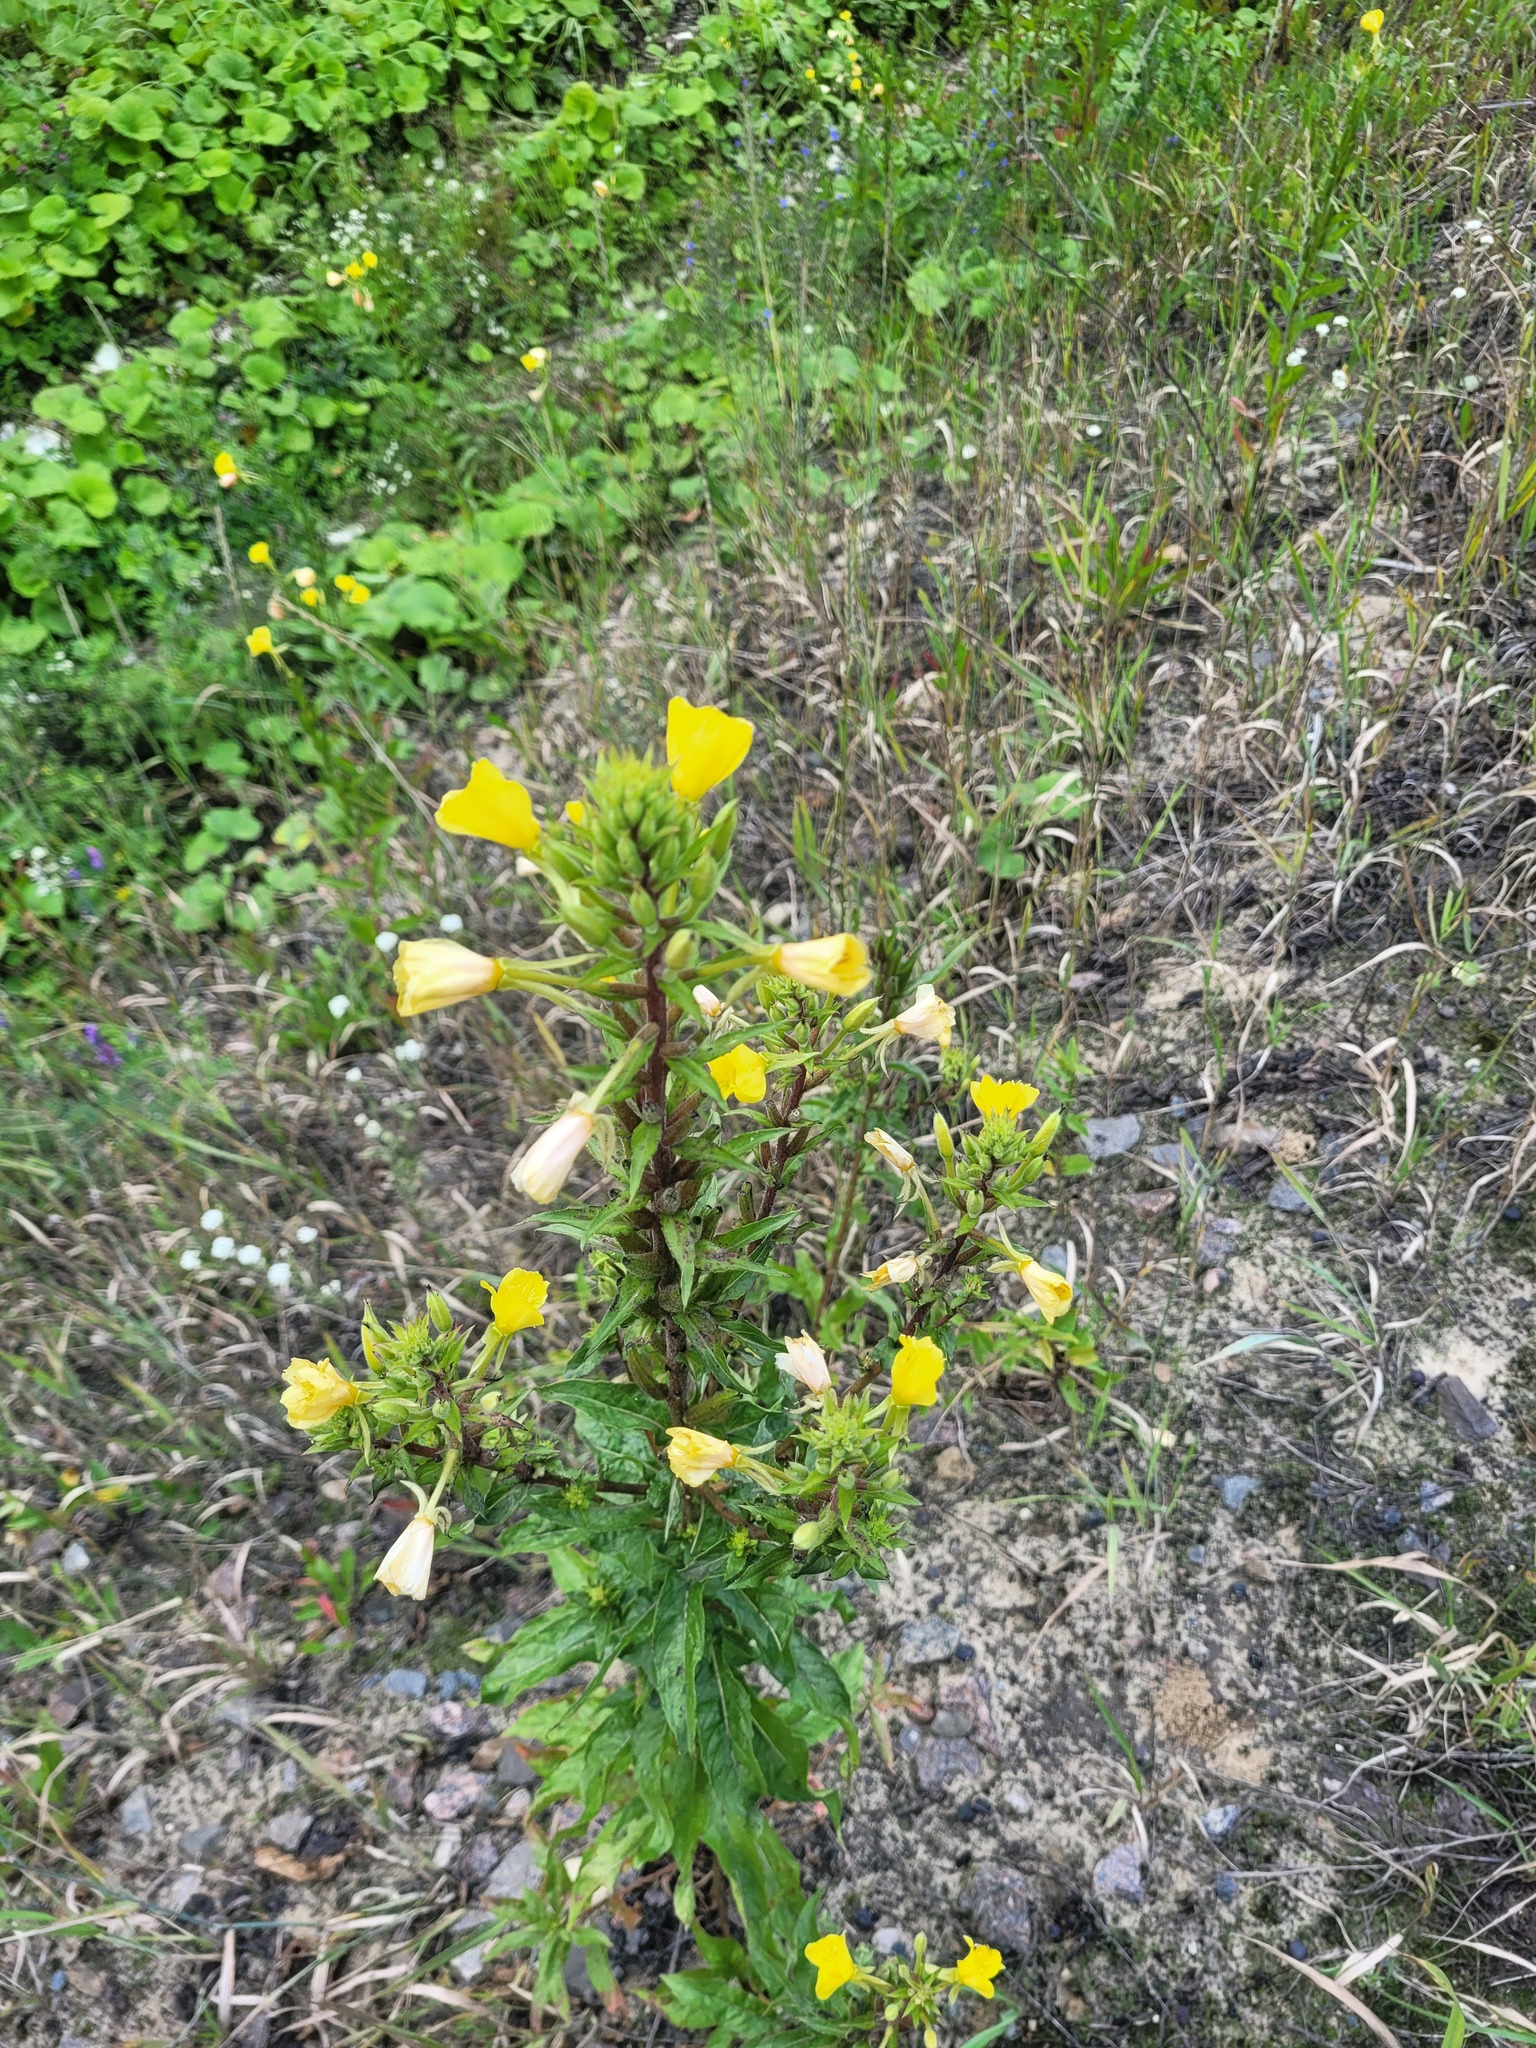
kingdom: Plantae
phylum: Tracheophyta
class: Magnoliopsida
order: Myrtales
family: Onagraceae
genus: Oenothera
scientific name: Oenothera rubricaulis
